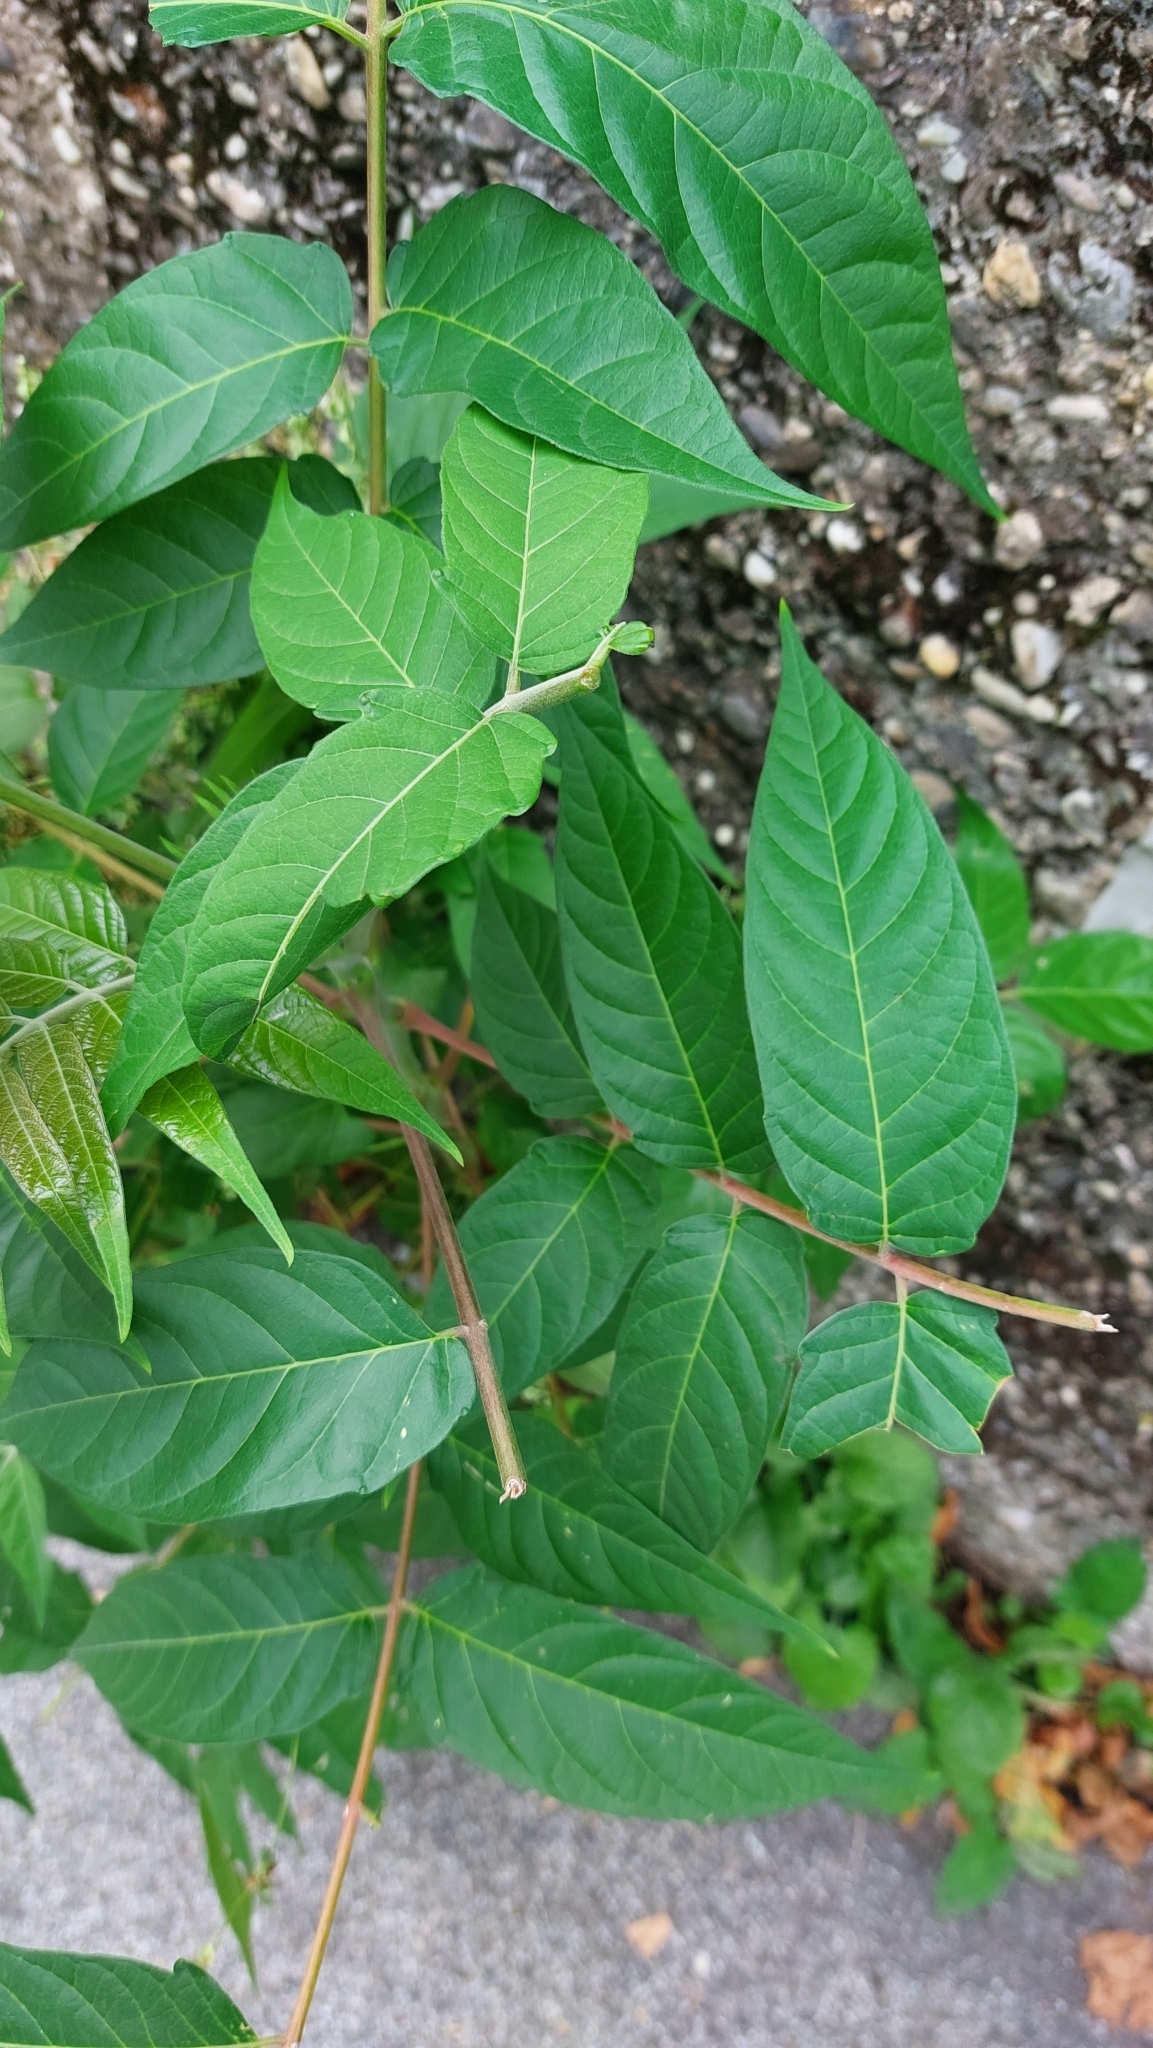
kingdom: Plantae
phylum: Tracheophyta
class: Magnoliopsida
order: Sapindales
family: Simaroubaceae
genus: Ailanthus
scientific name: Ailanthus altissima
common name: Tree-of-heaven
